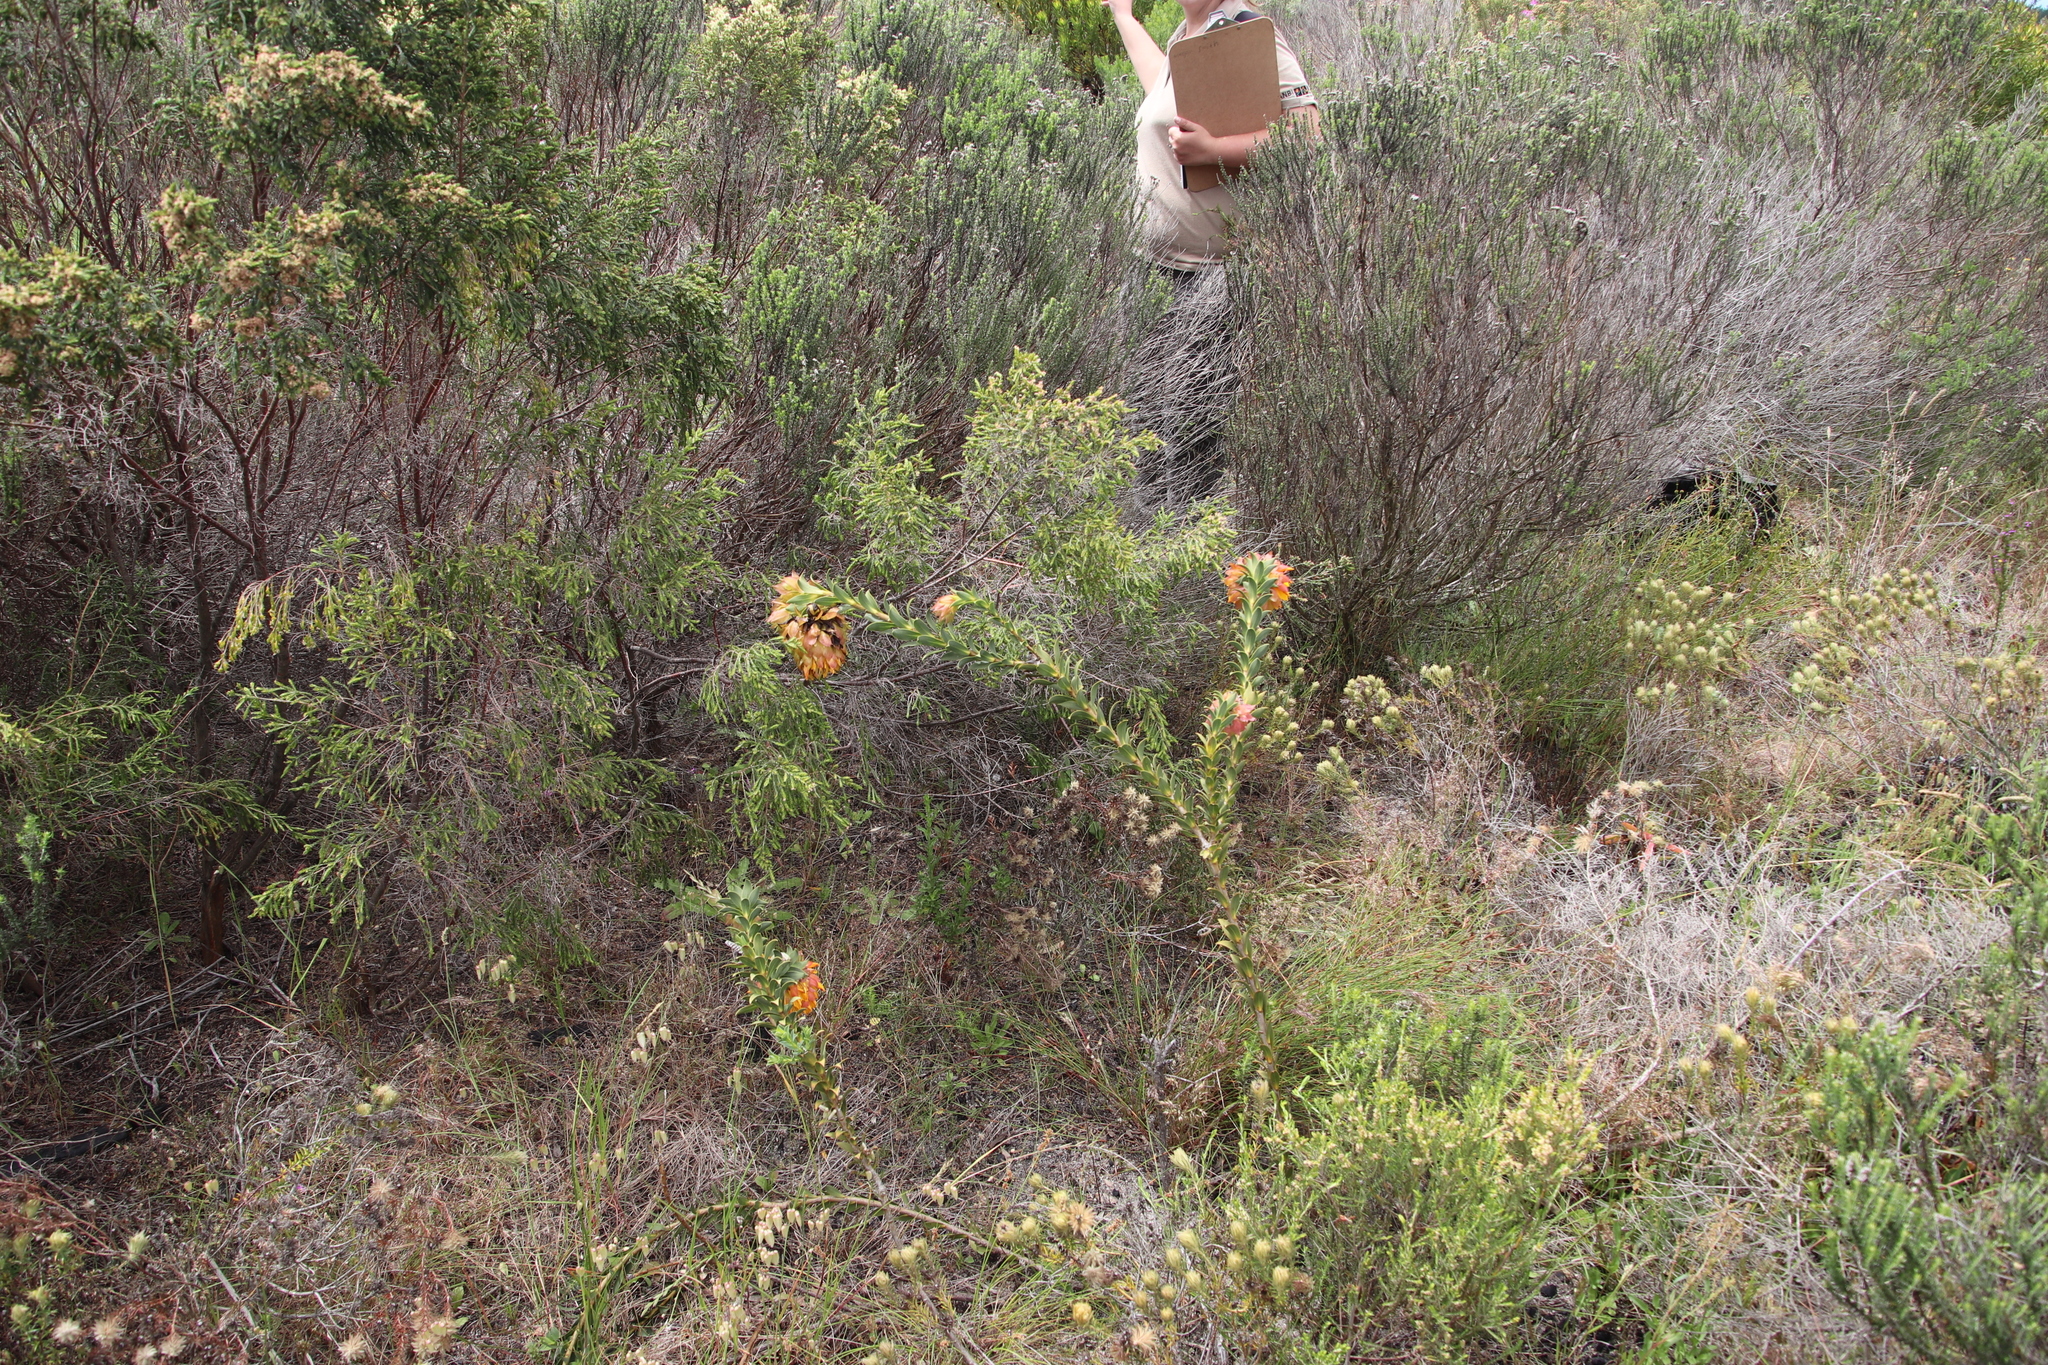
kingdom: Plantae
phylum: Tracheophyta
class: Magnoliopsida
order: Fabales
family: Fabaceae
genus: Liparia
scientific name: Liparia splendens
